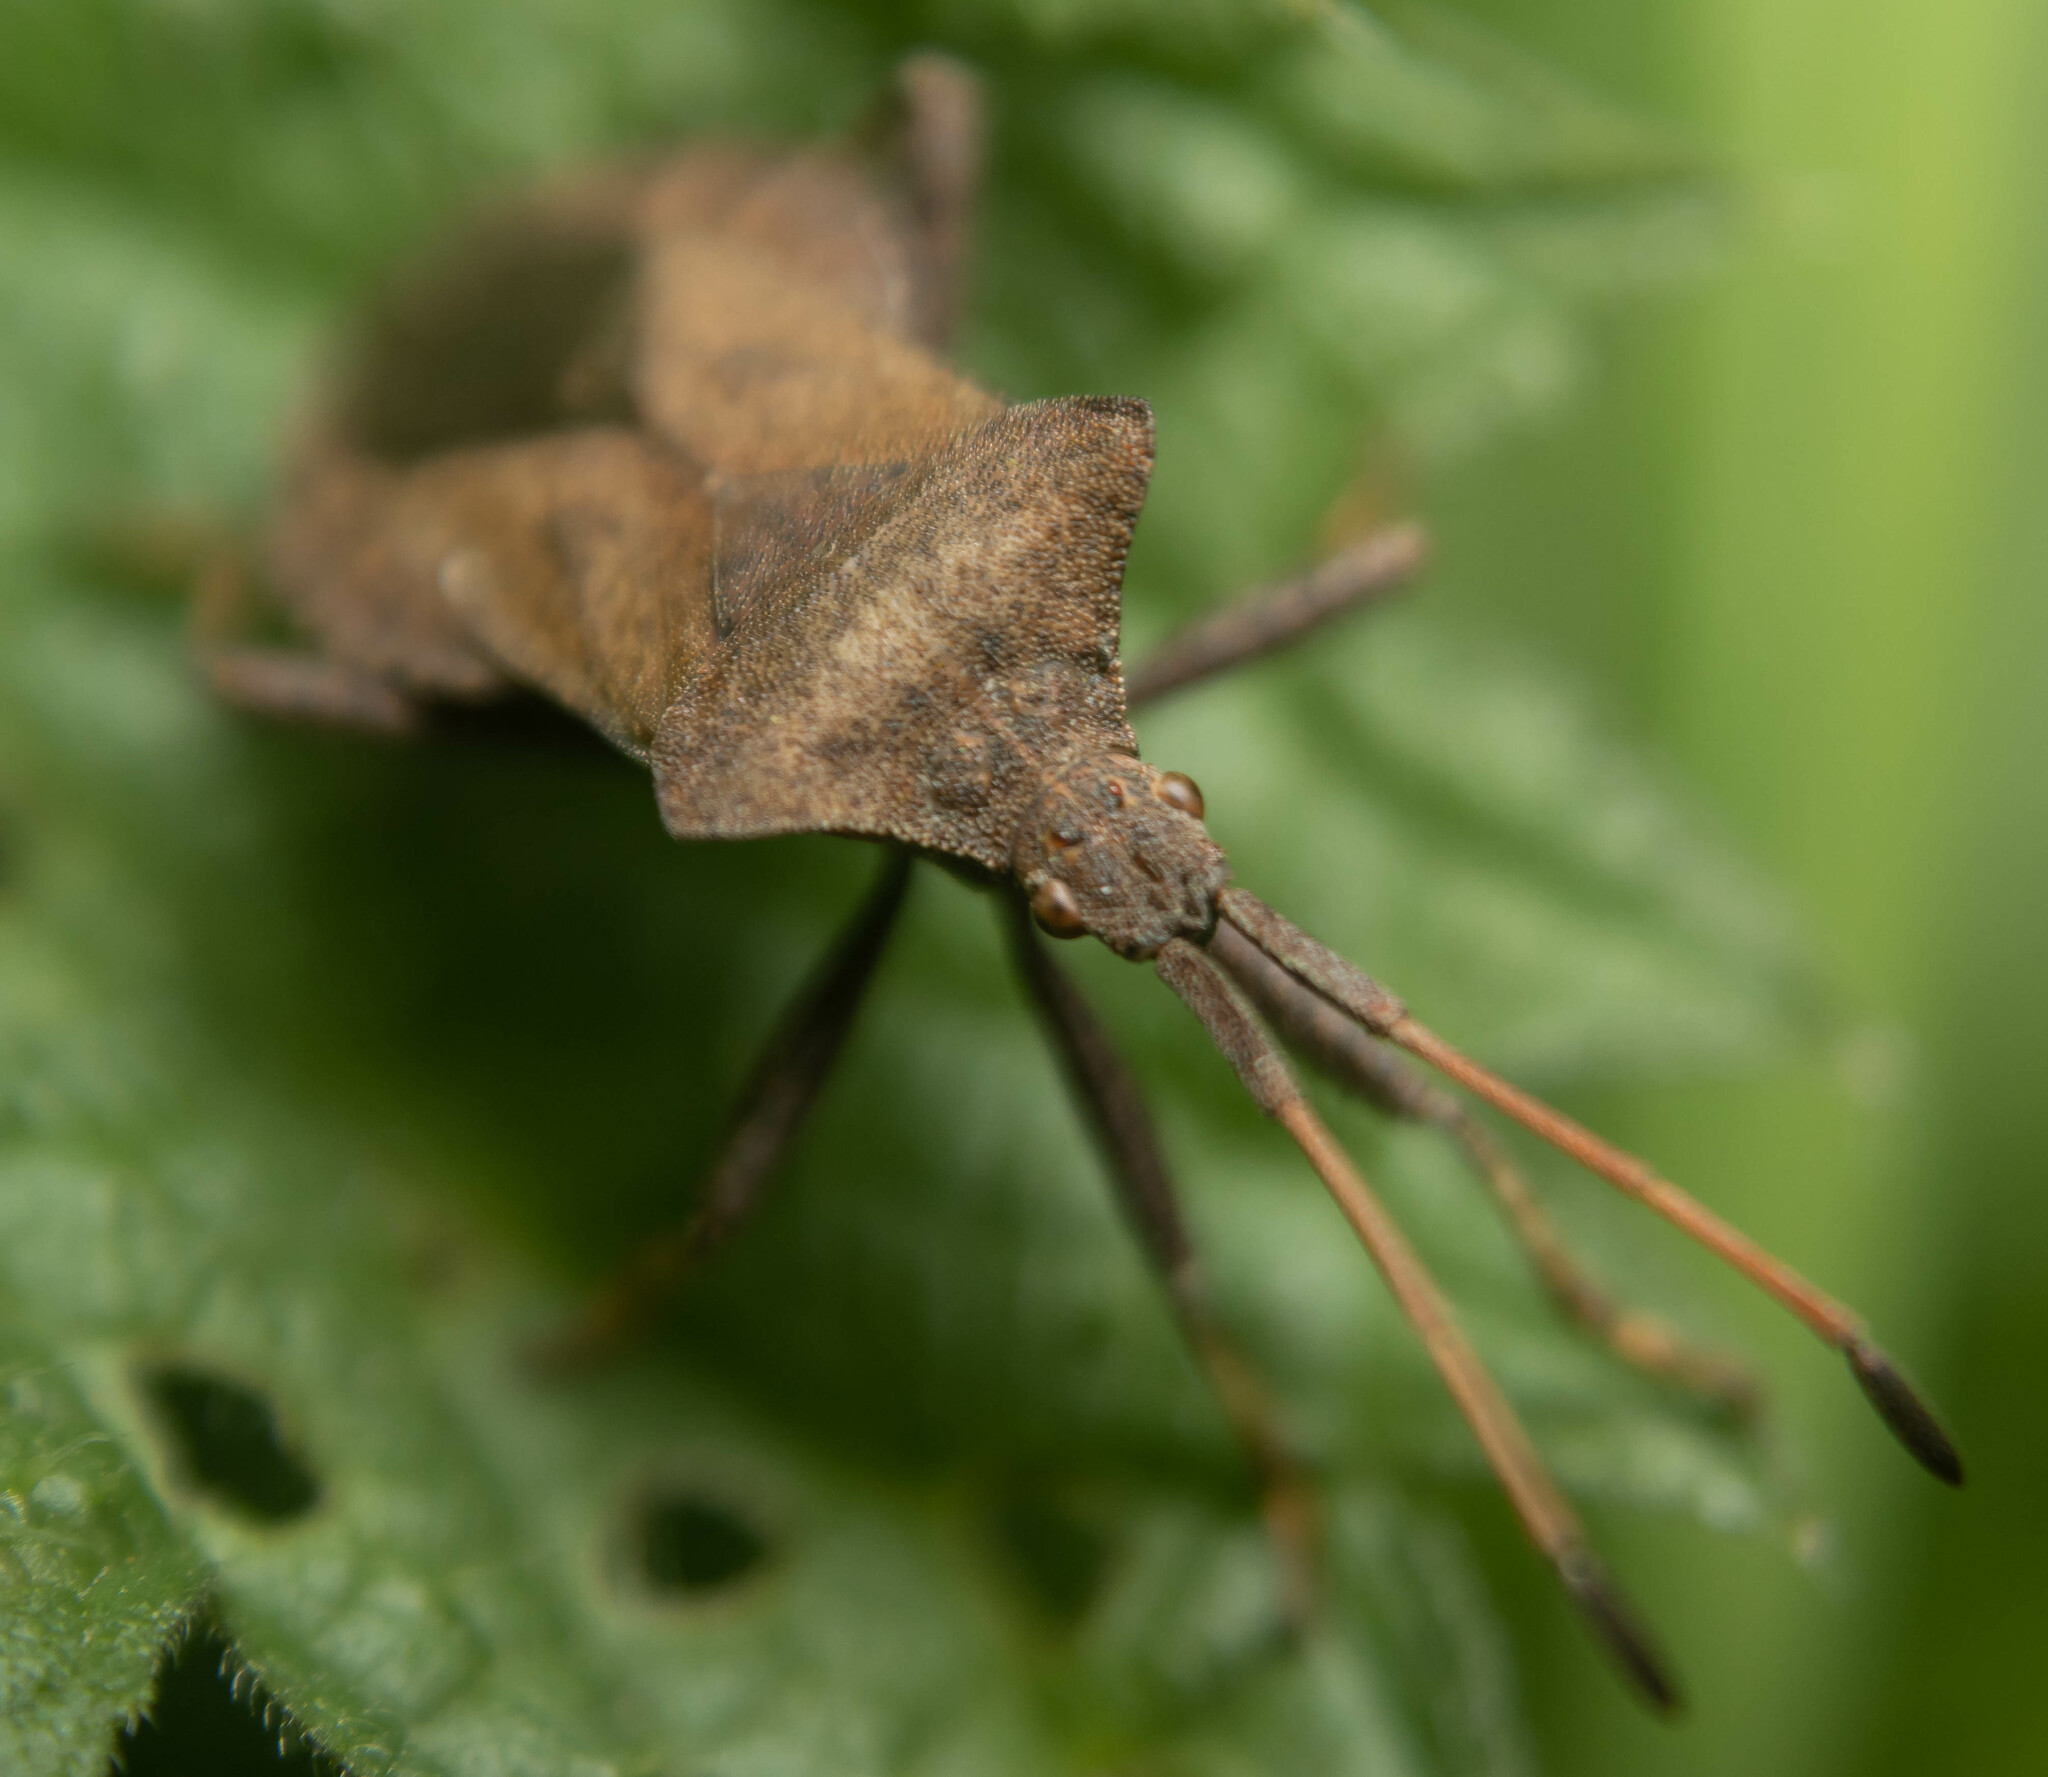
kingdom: Animalia
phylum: Arthropoda
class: Insecta
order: Hemiptera
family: Coreidae
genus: Coreus
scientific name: Coreus marginatus
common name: Dock bug
